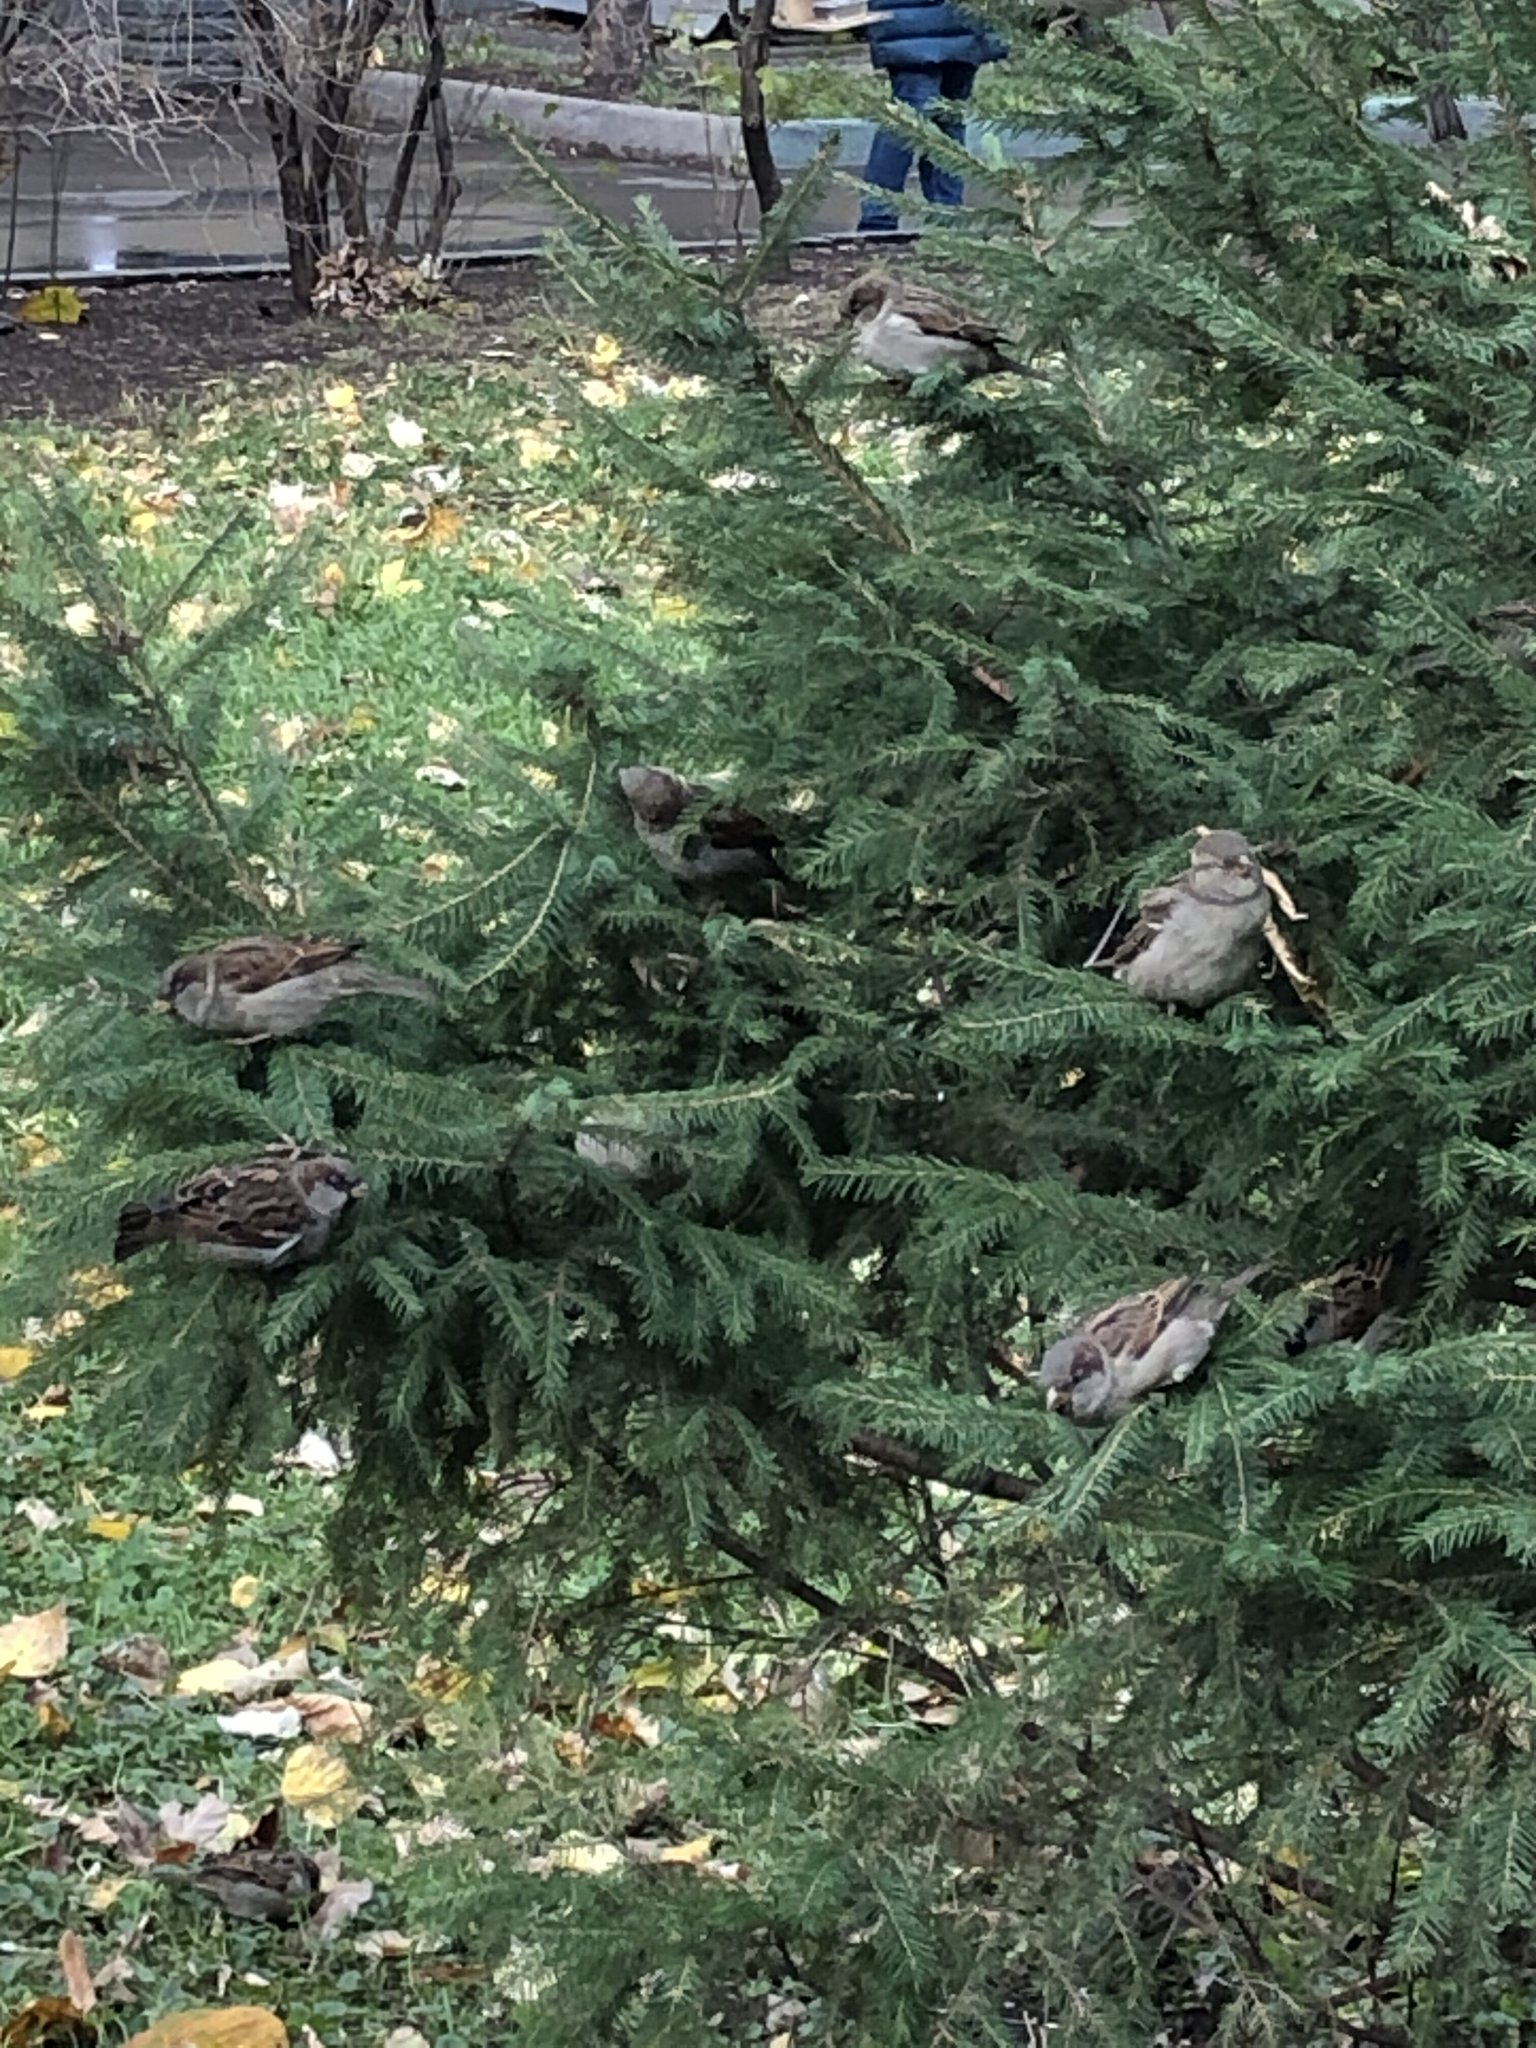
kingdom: Animalia
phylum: Chordata
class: Aves
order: Passeriformes
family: Passeridae
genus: Passer
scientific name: Passer domesticus
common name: House sparrow
